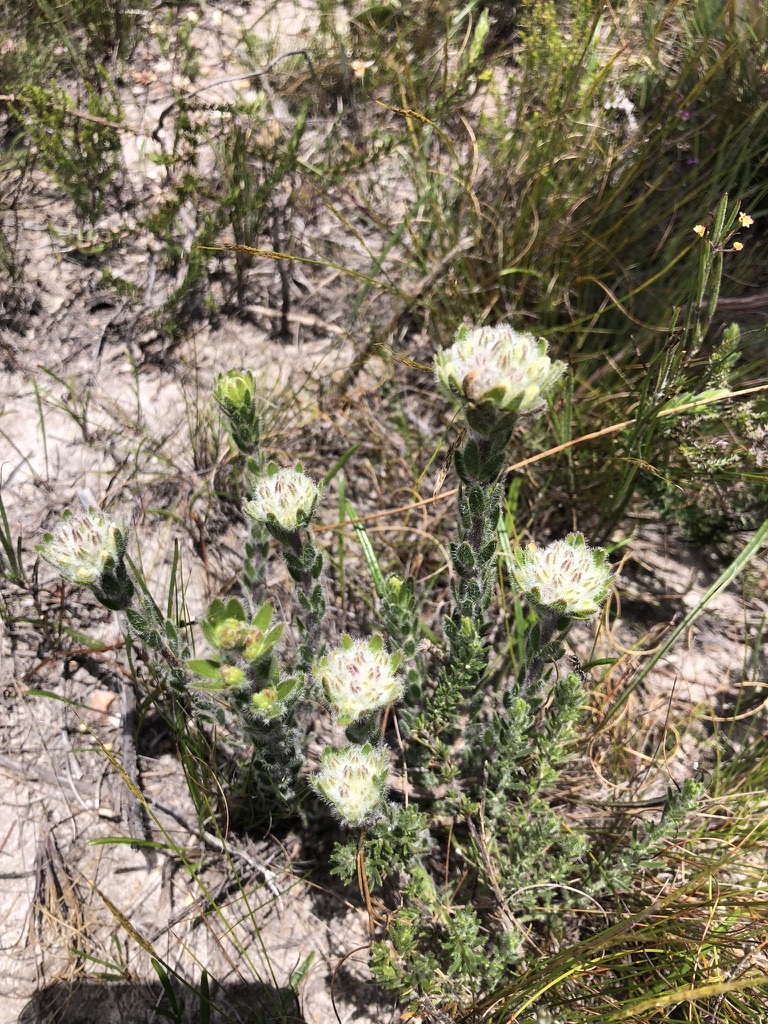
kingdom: Plantae
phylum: Tracheophyta
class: Magnoliopsida
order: Fabales
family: Fabaceae
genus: Aspalathus
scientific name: Aspalathus aspalathoides
